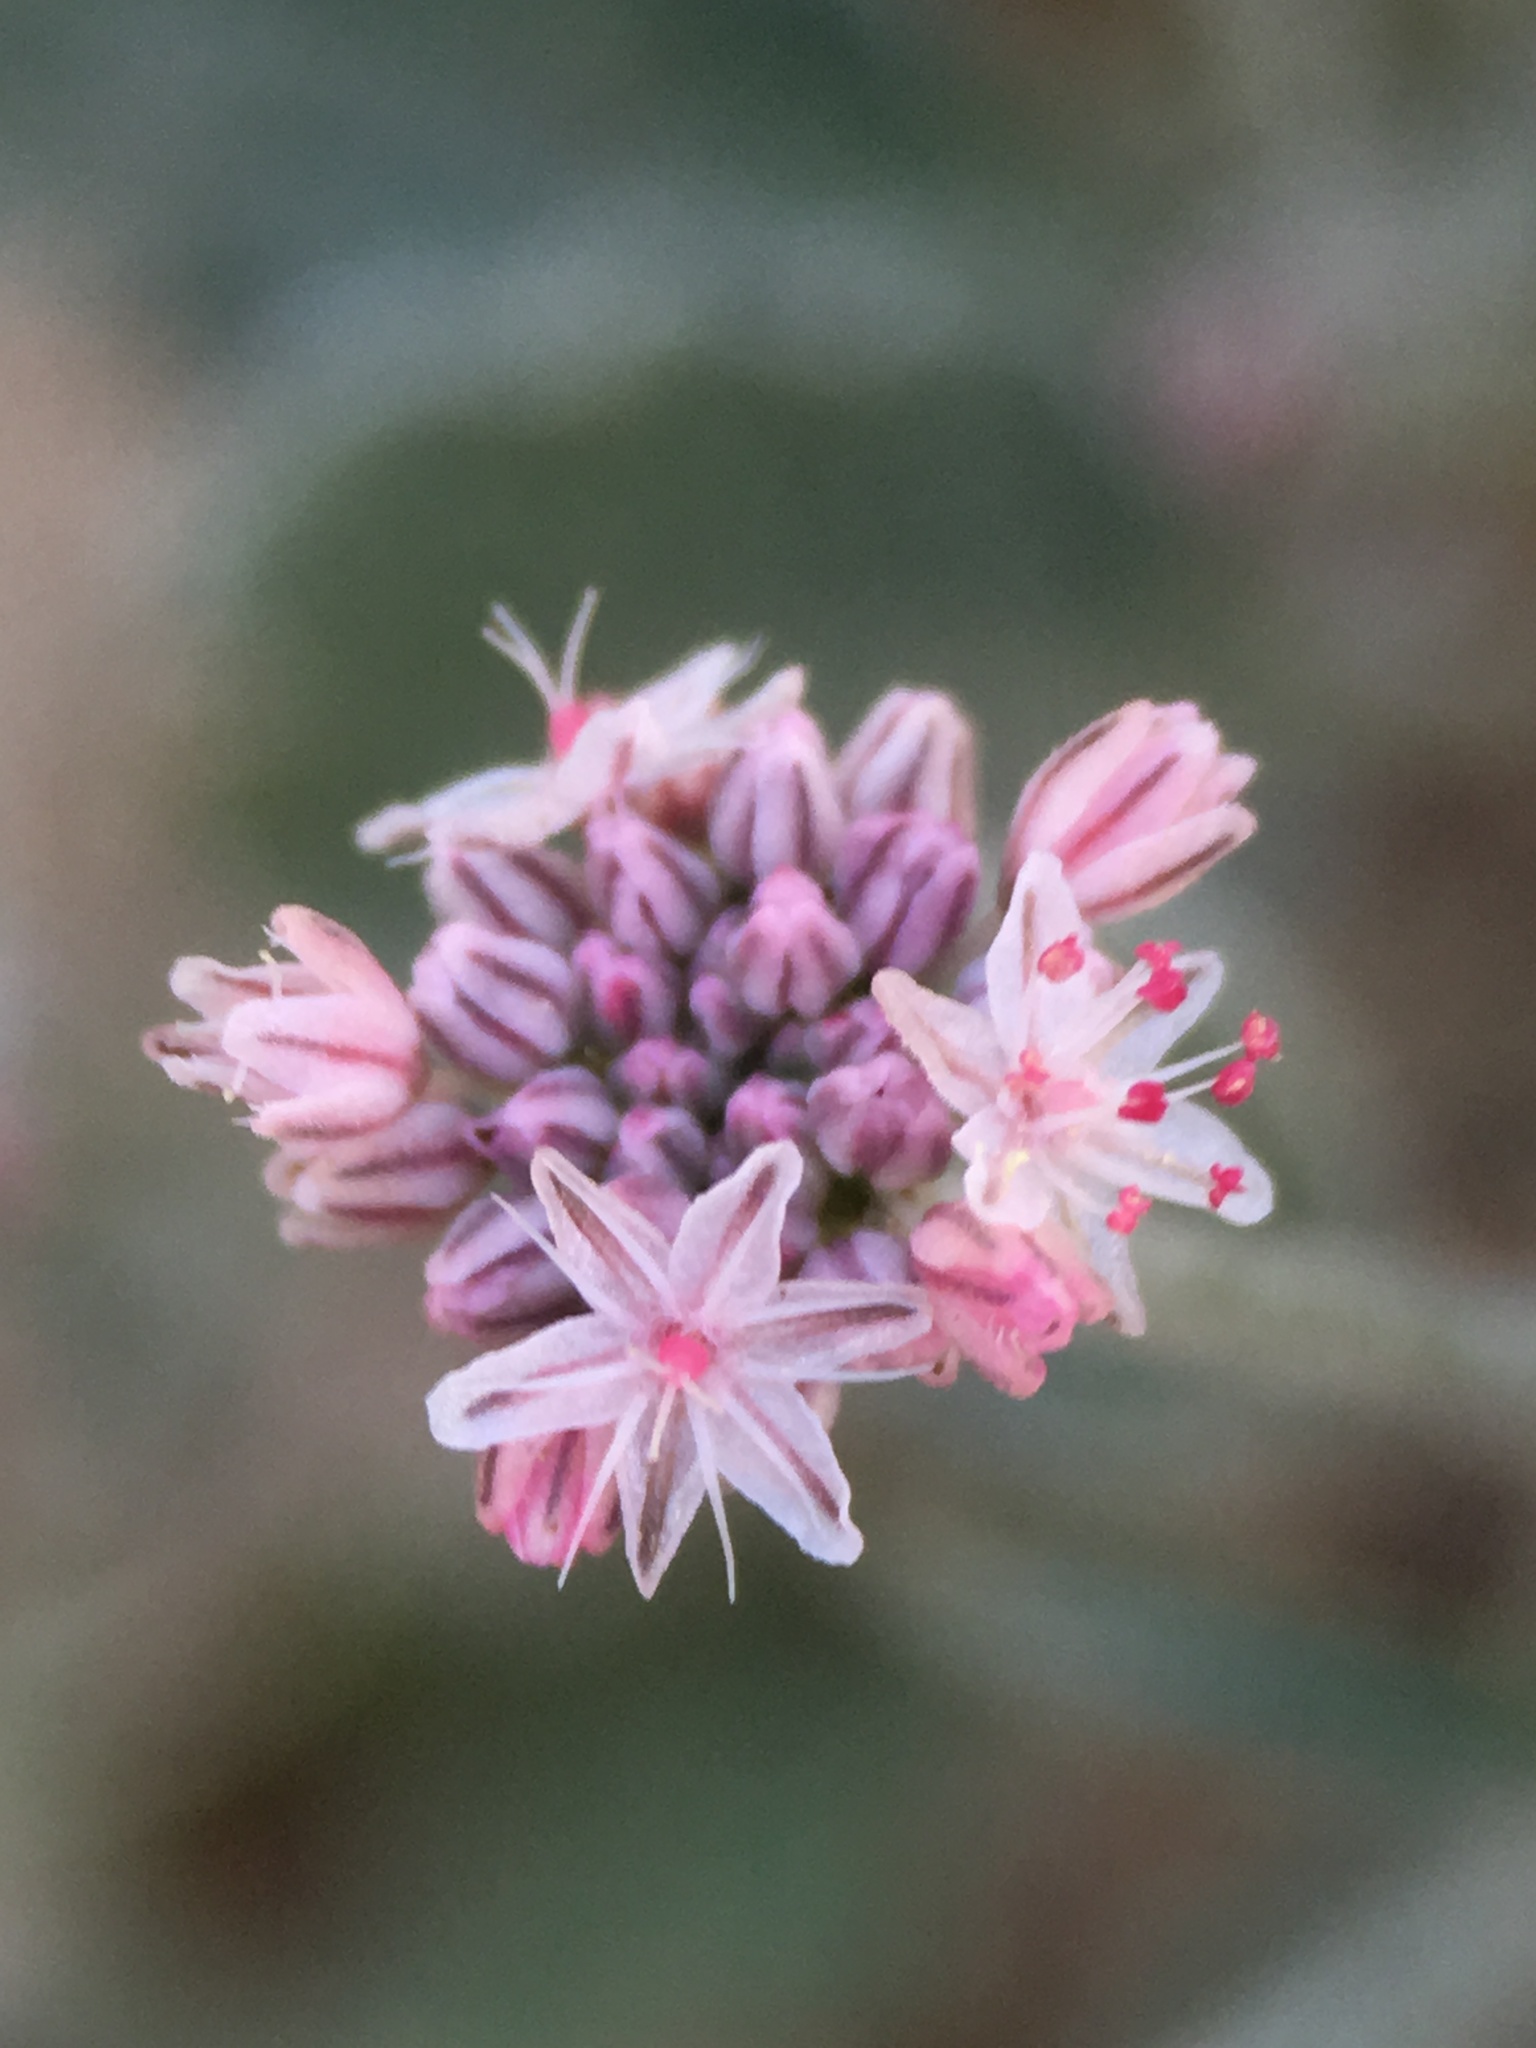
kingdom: Plantae
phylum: Tracheophyta
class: Magnoliopsida
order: Caryophyllales
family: Polygonaceae
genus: Eriogonum
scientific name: Eriogonum vestitum
